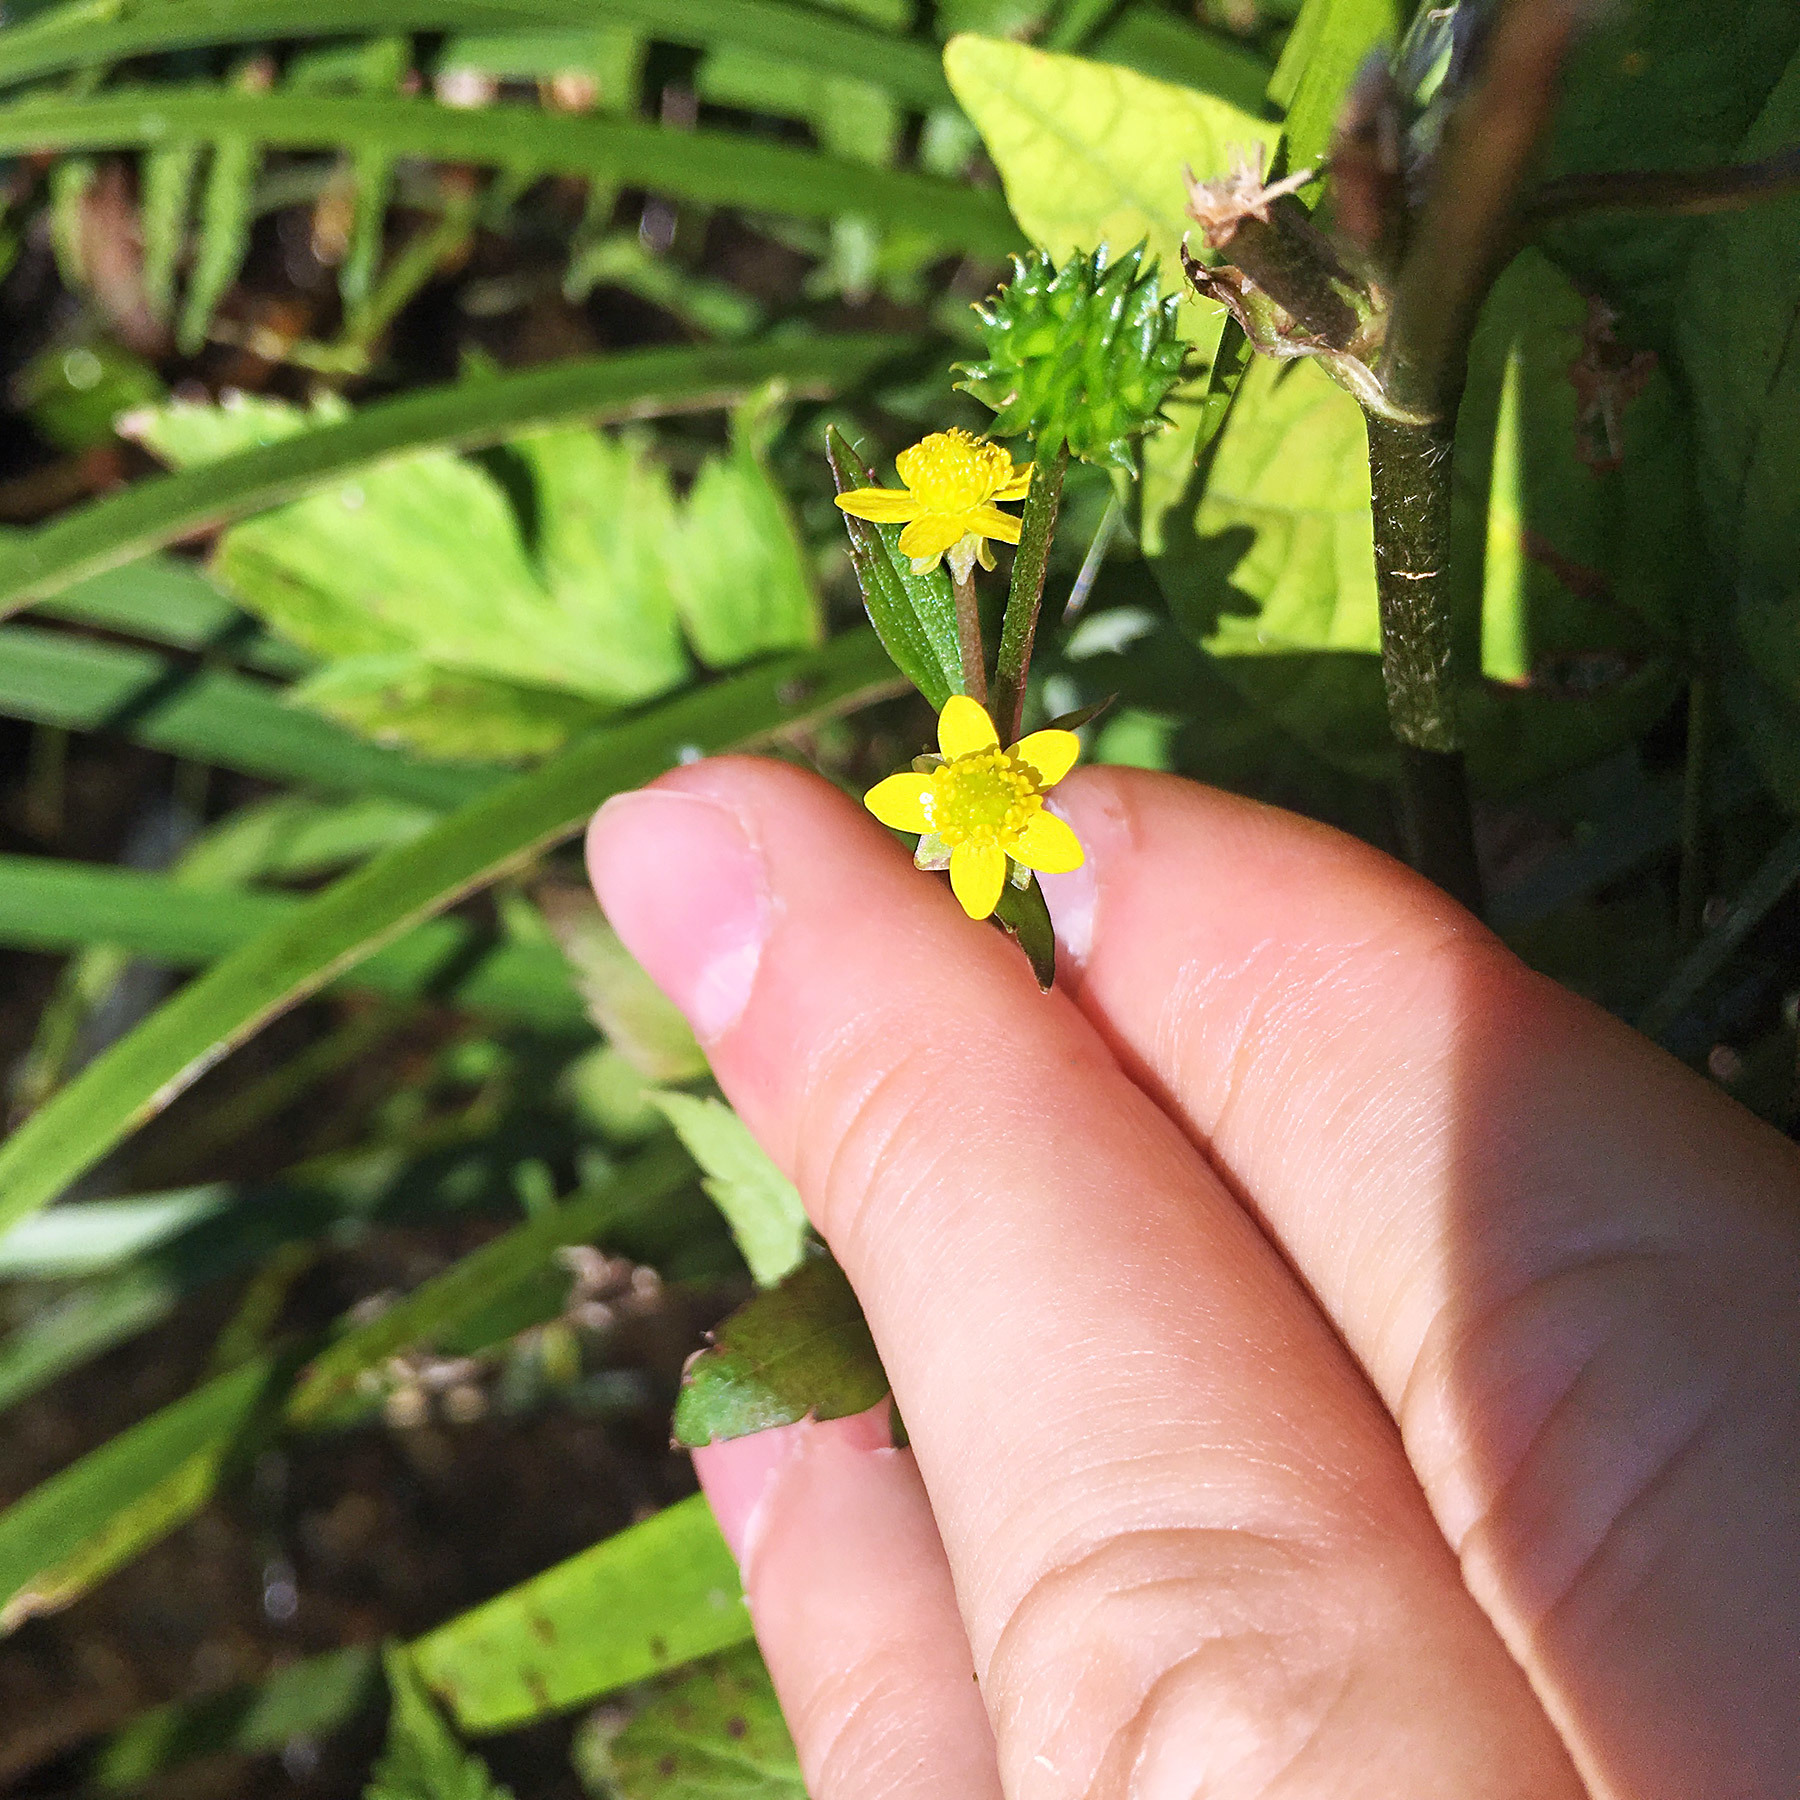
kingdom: Plantae
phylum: Tracheophyta
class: Magnoliopsida
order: Ranunculales
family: Ranunculaceae
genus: Ranunculus
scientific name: Ranunculus silerifolius
